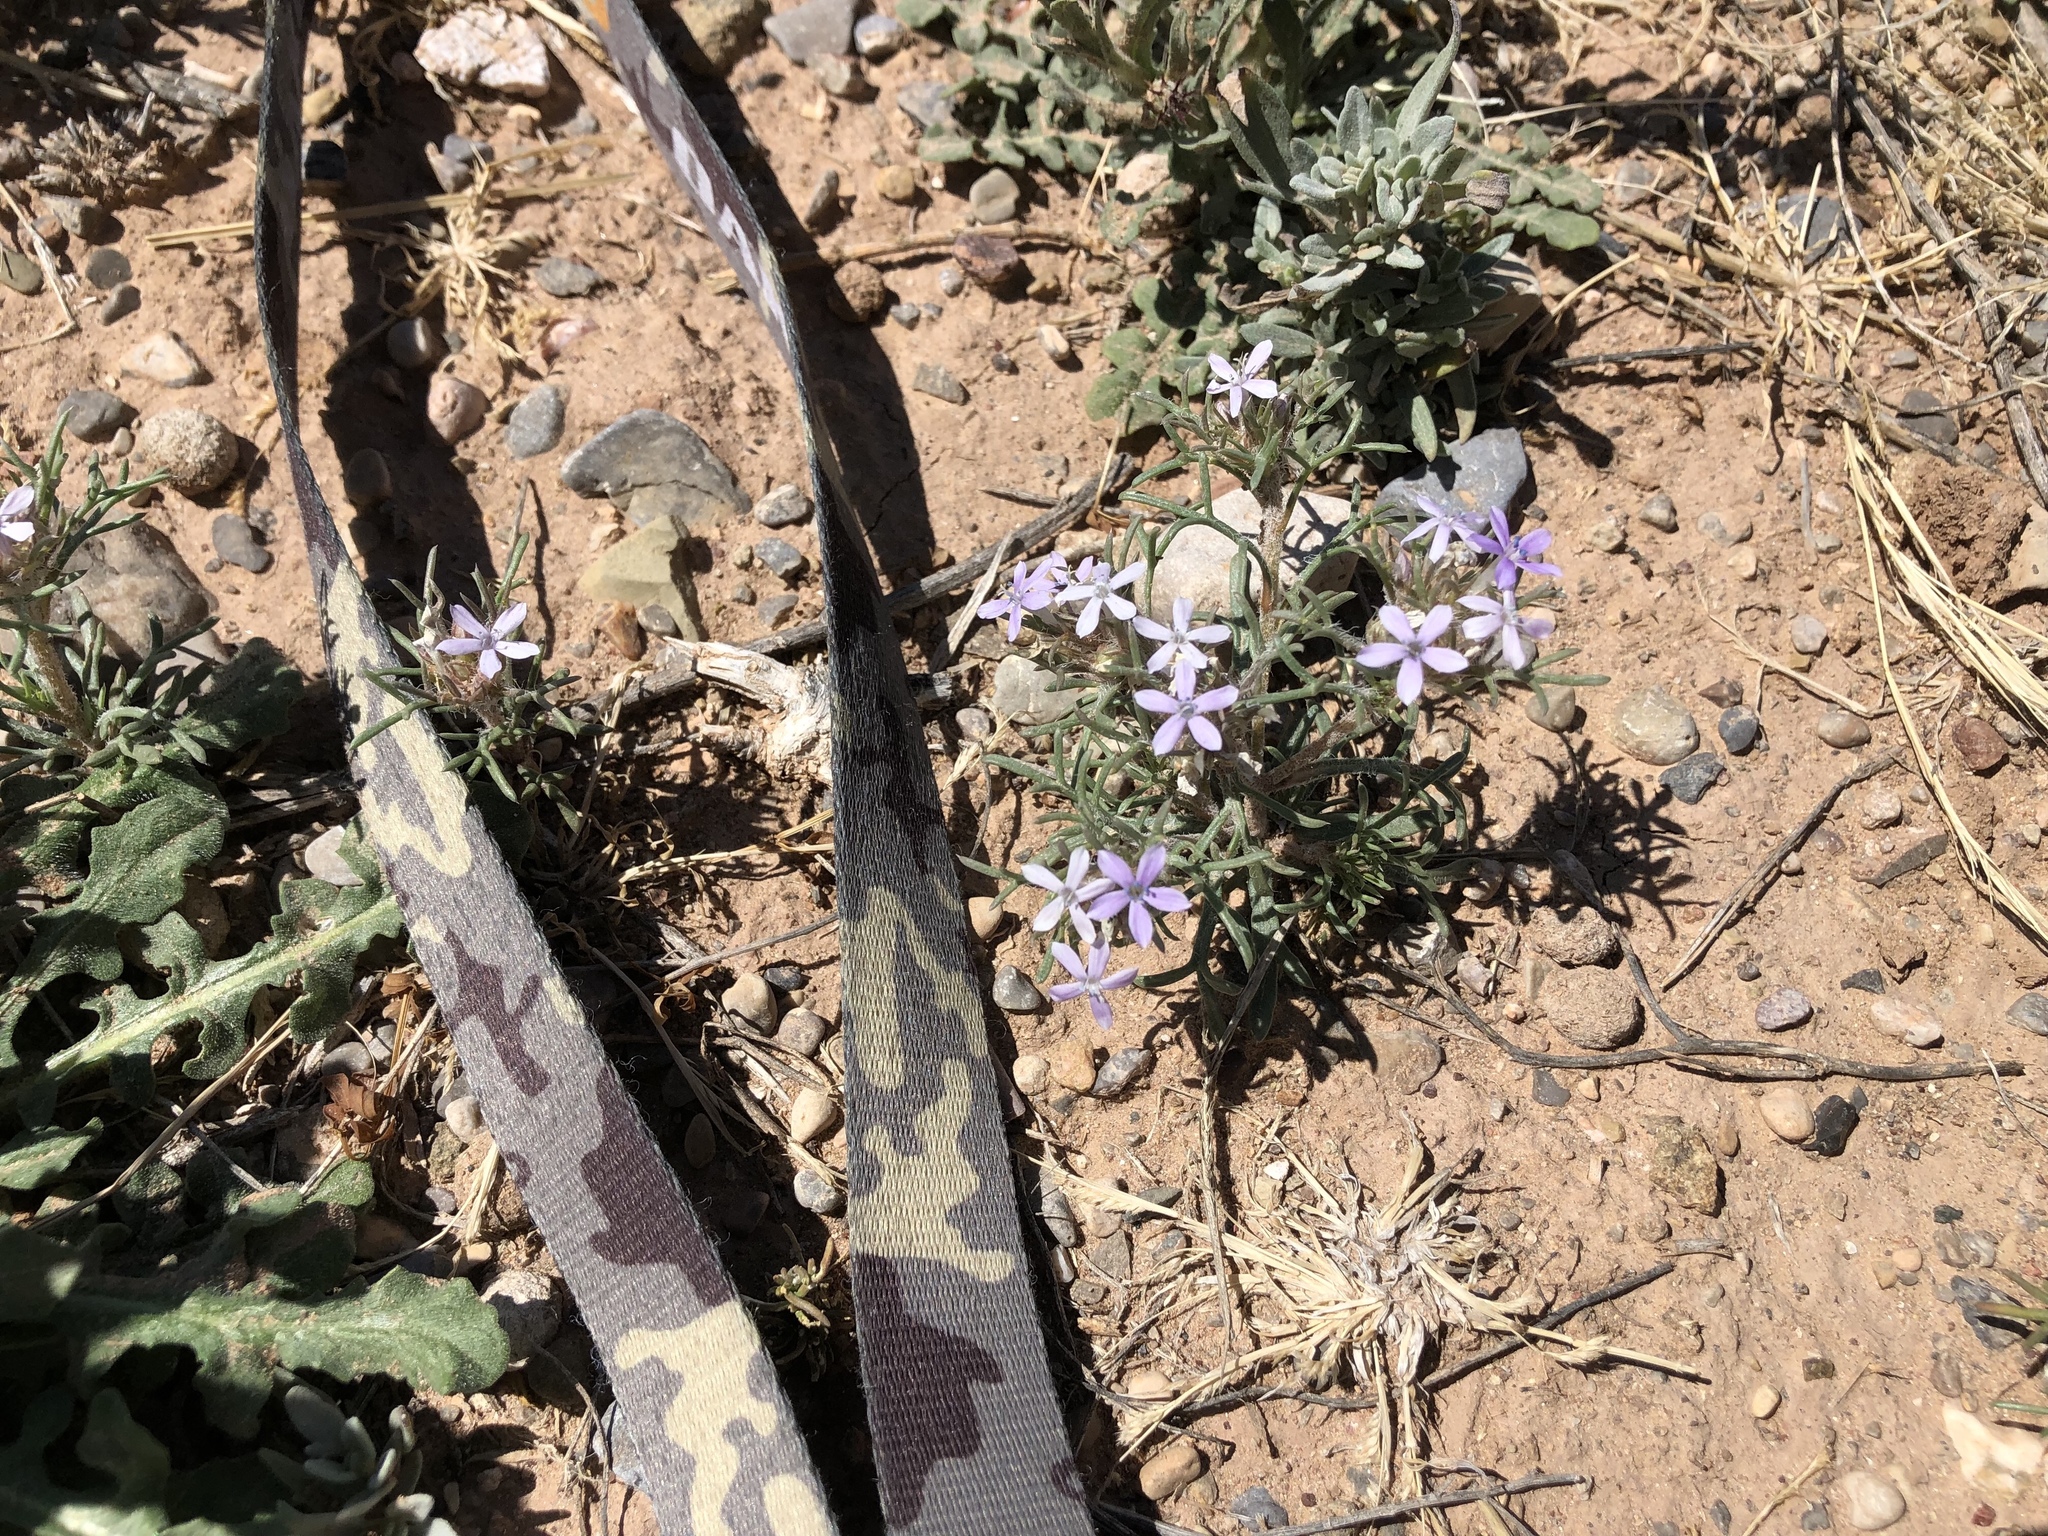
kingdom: Plantae
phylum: Tracheophyta
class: Magnoliopsida
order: Ericales
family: Polemoniaceae
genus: Ipomopsis
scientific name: Ipomopsis pumila
